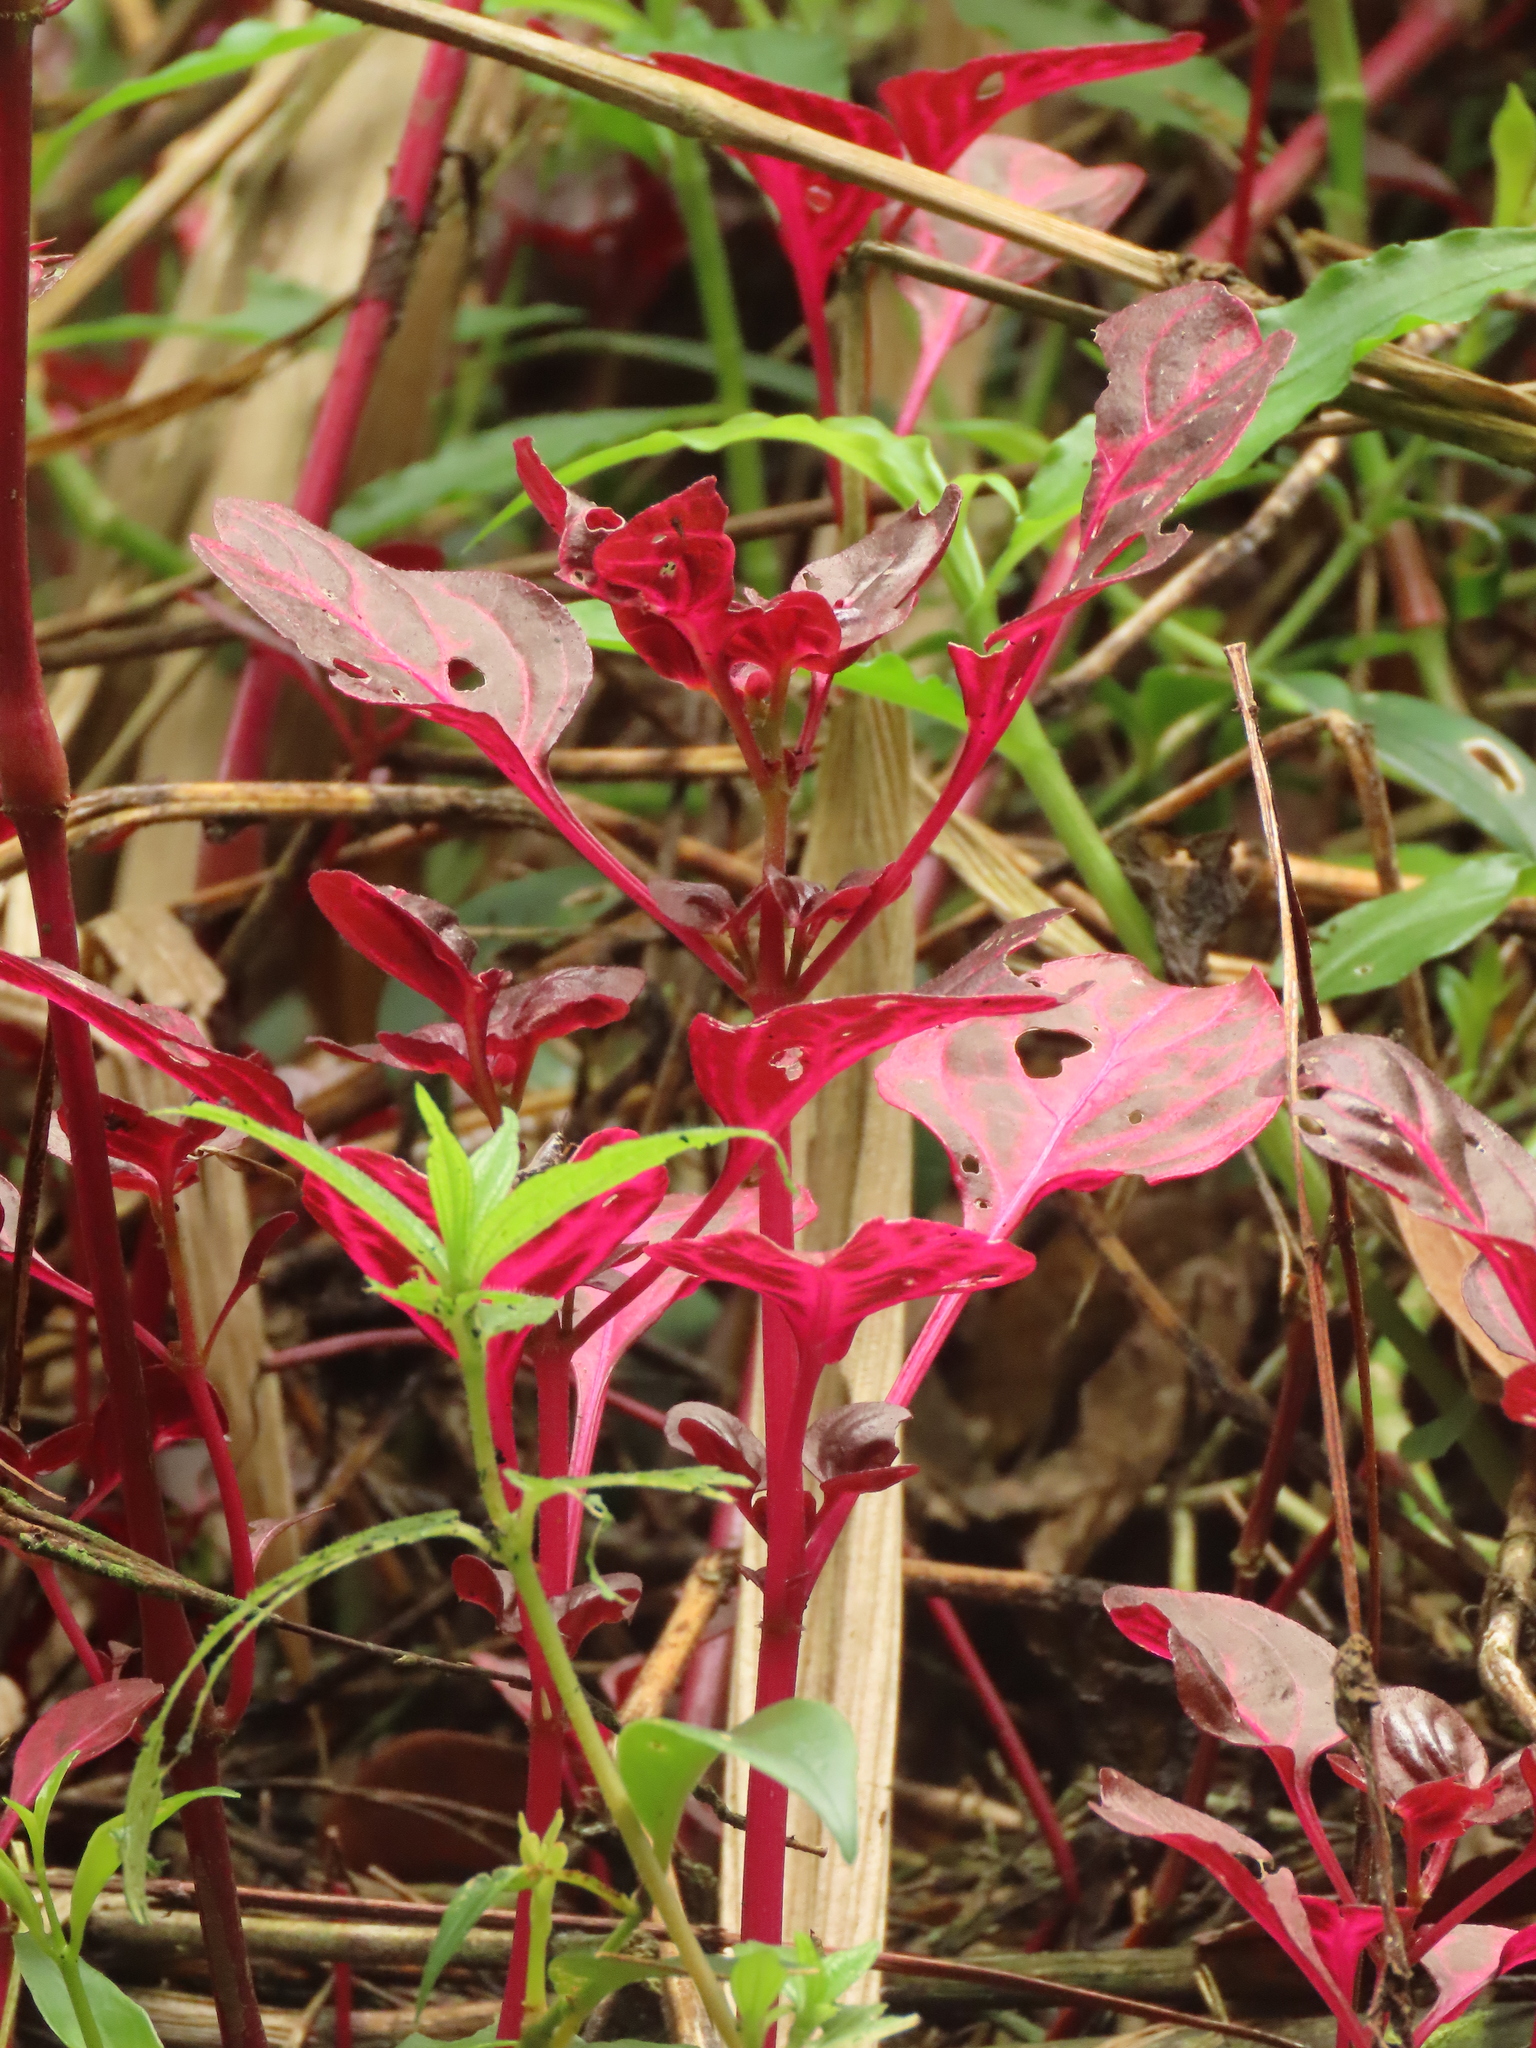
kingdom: Plantae
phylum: Tracheophyta
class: Magnoliopsida
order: Caryophyllales
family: Amaranthaceae
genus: Iresine
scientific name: Iresine diffusa
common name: Juba's-bush
